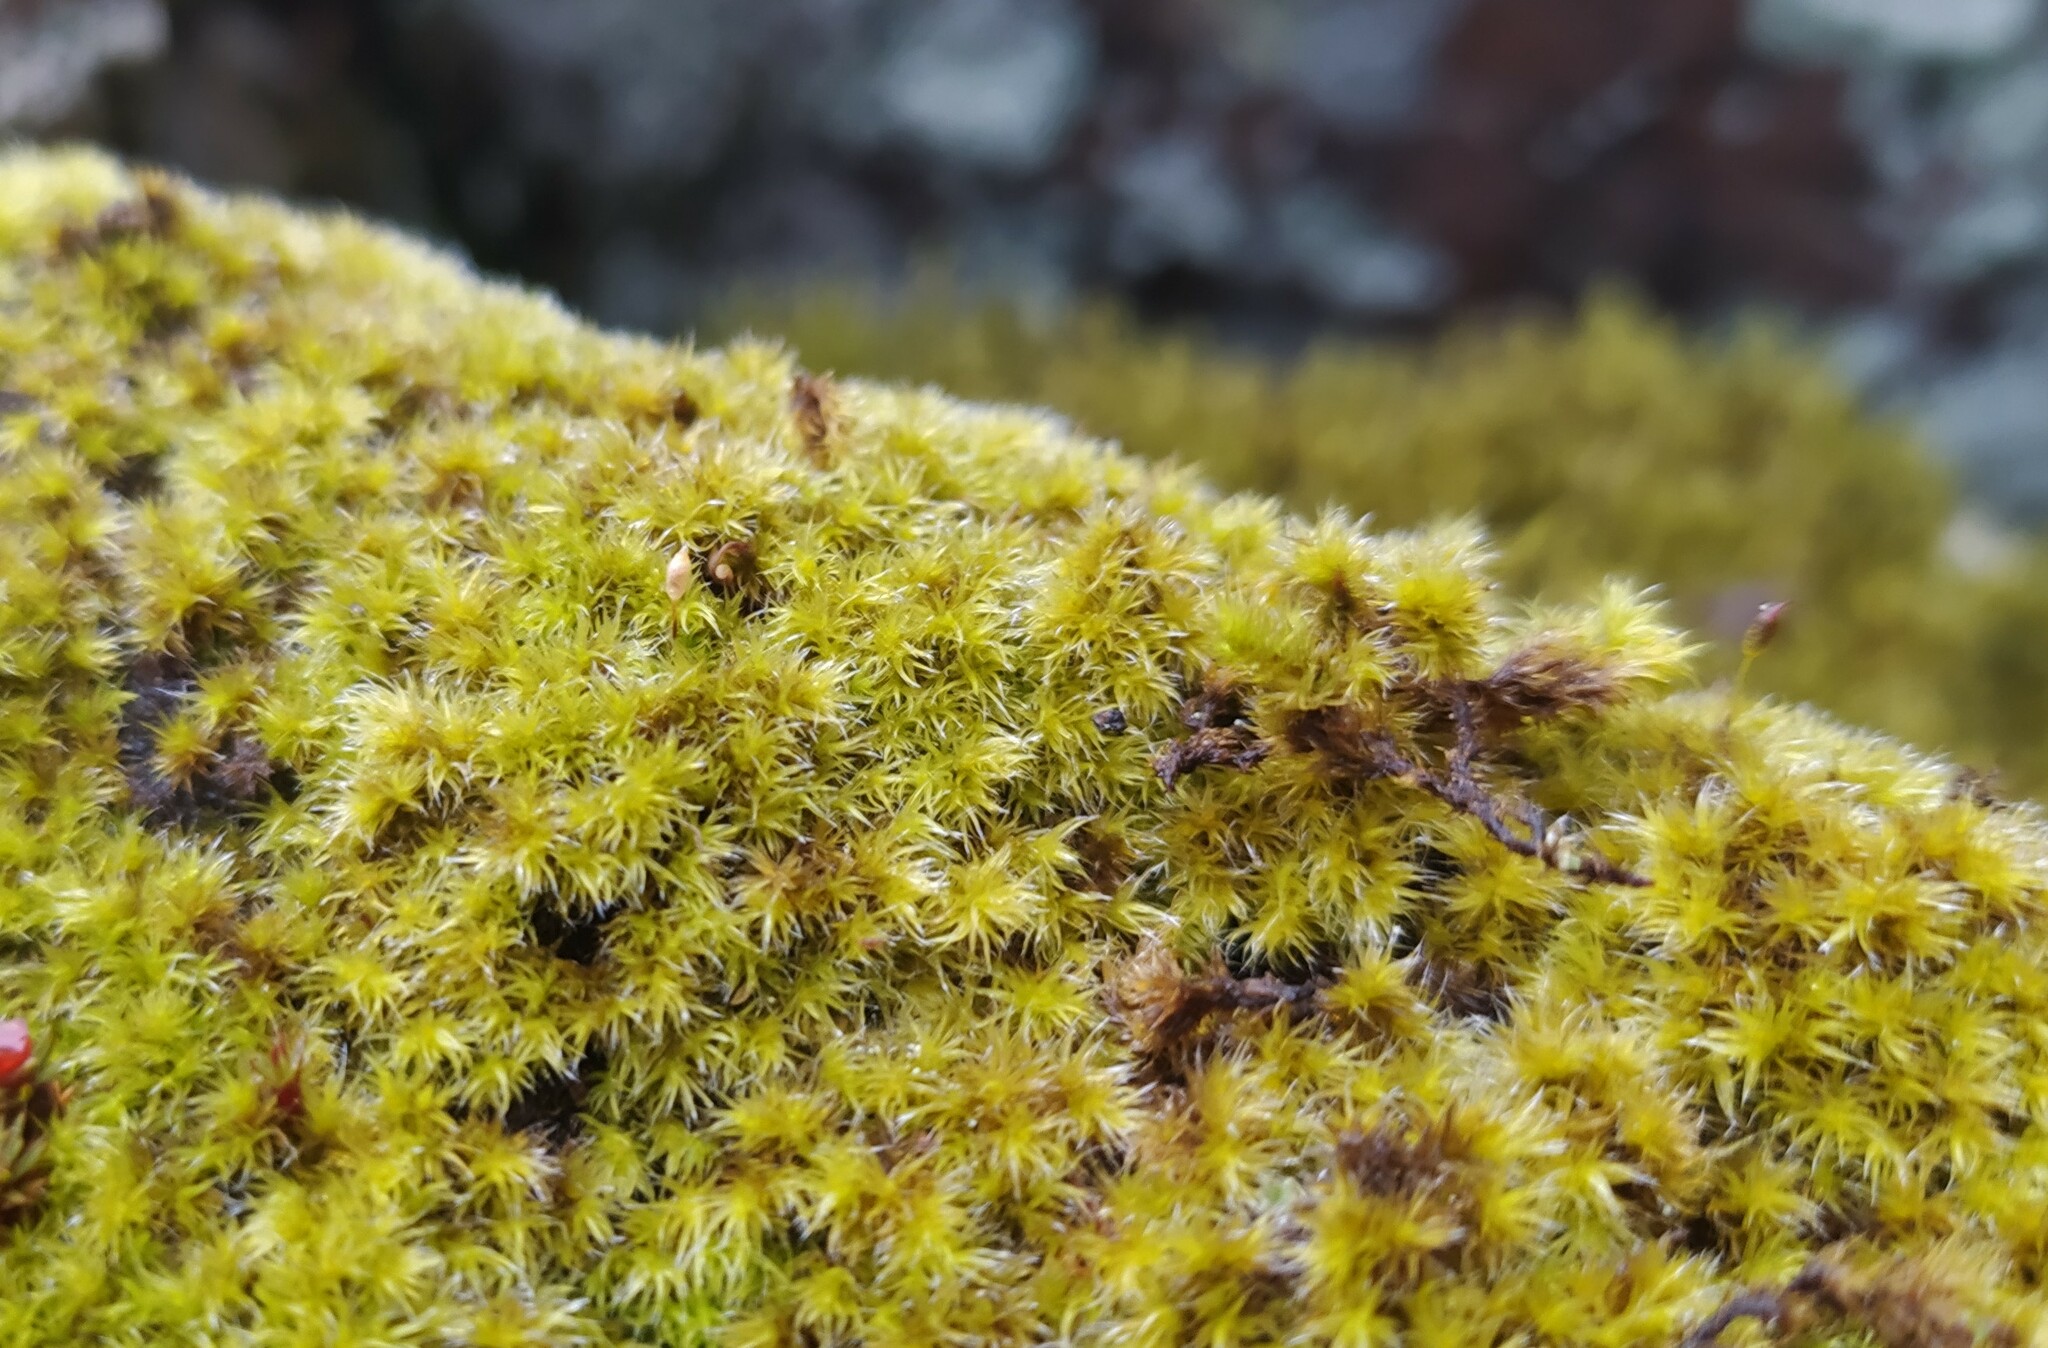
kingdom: Plantae
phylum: Bryophyta
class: Bryopsida
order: Grimmiales
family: Grimmiaceae
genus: Bucklandiella
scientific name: Bucklandiella microcarpos
